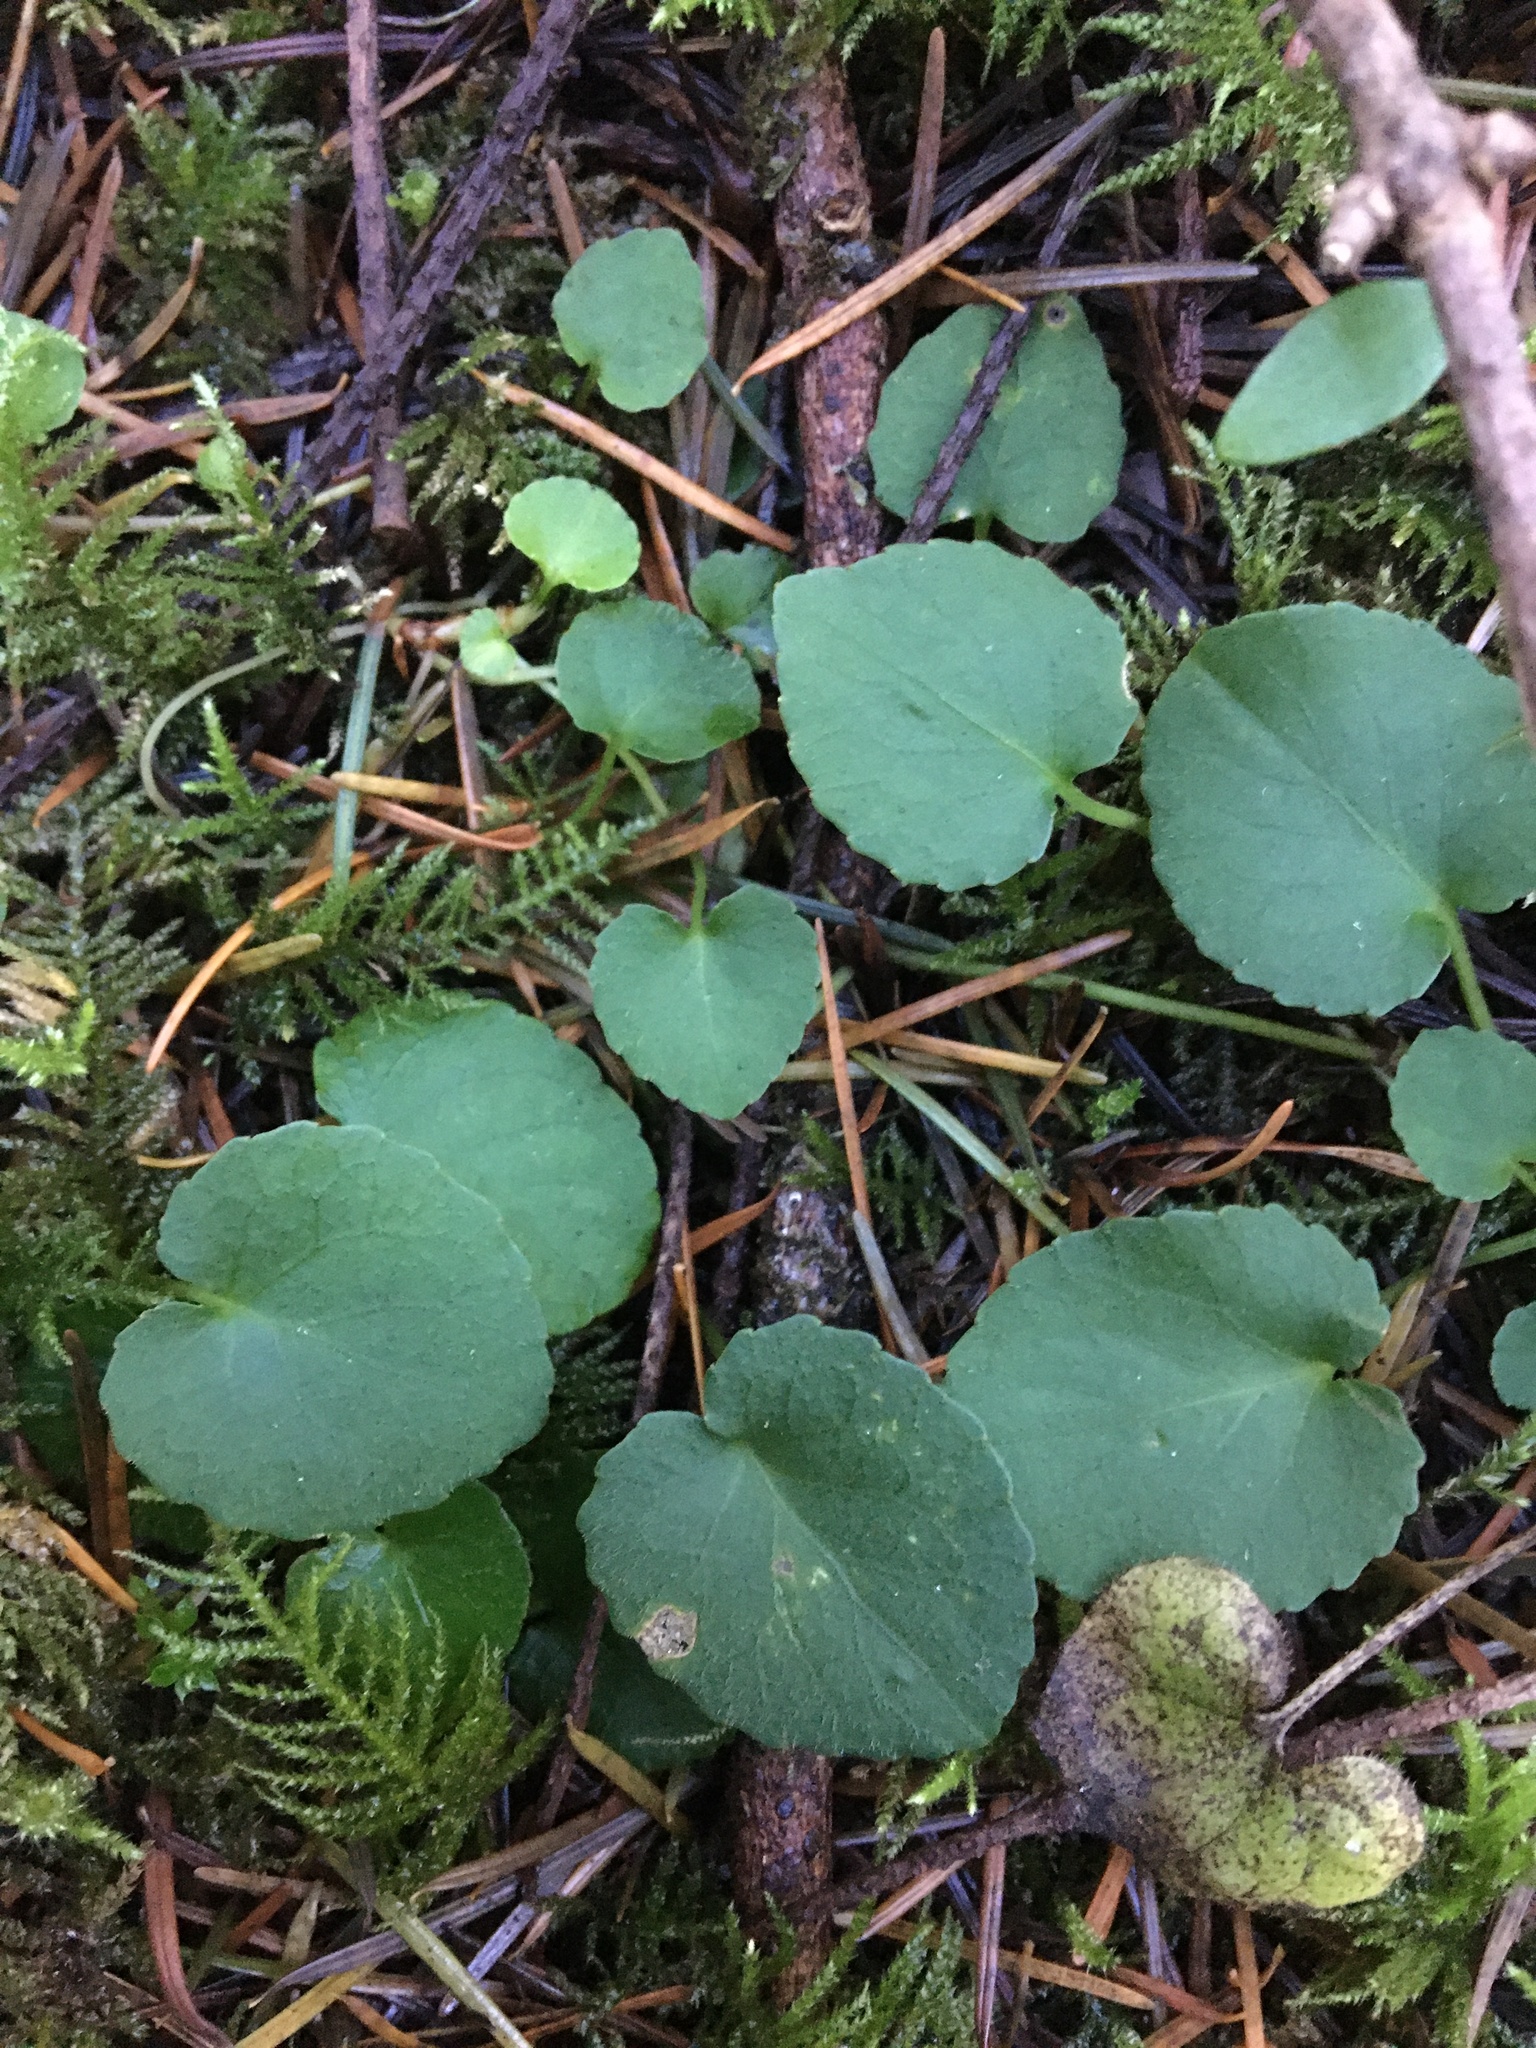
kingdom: Plantae
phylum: Tracheophyta
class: Magnoliopsida
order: Malpighiales
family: Violaceae
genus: Viola
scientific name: Viola sempervirens
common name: Evergreen violet
